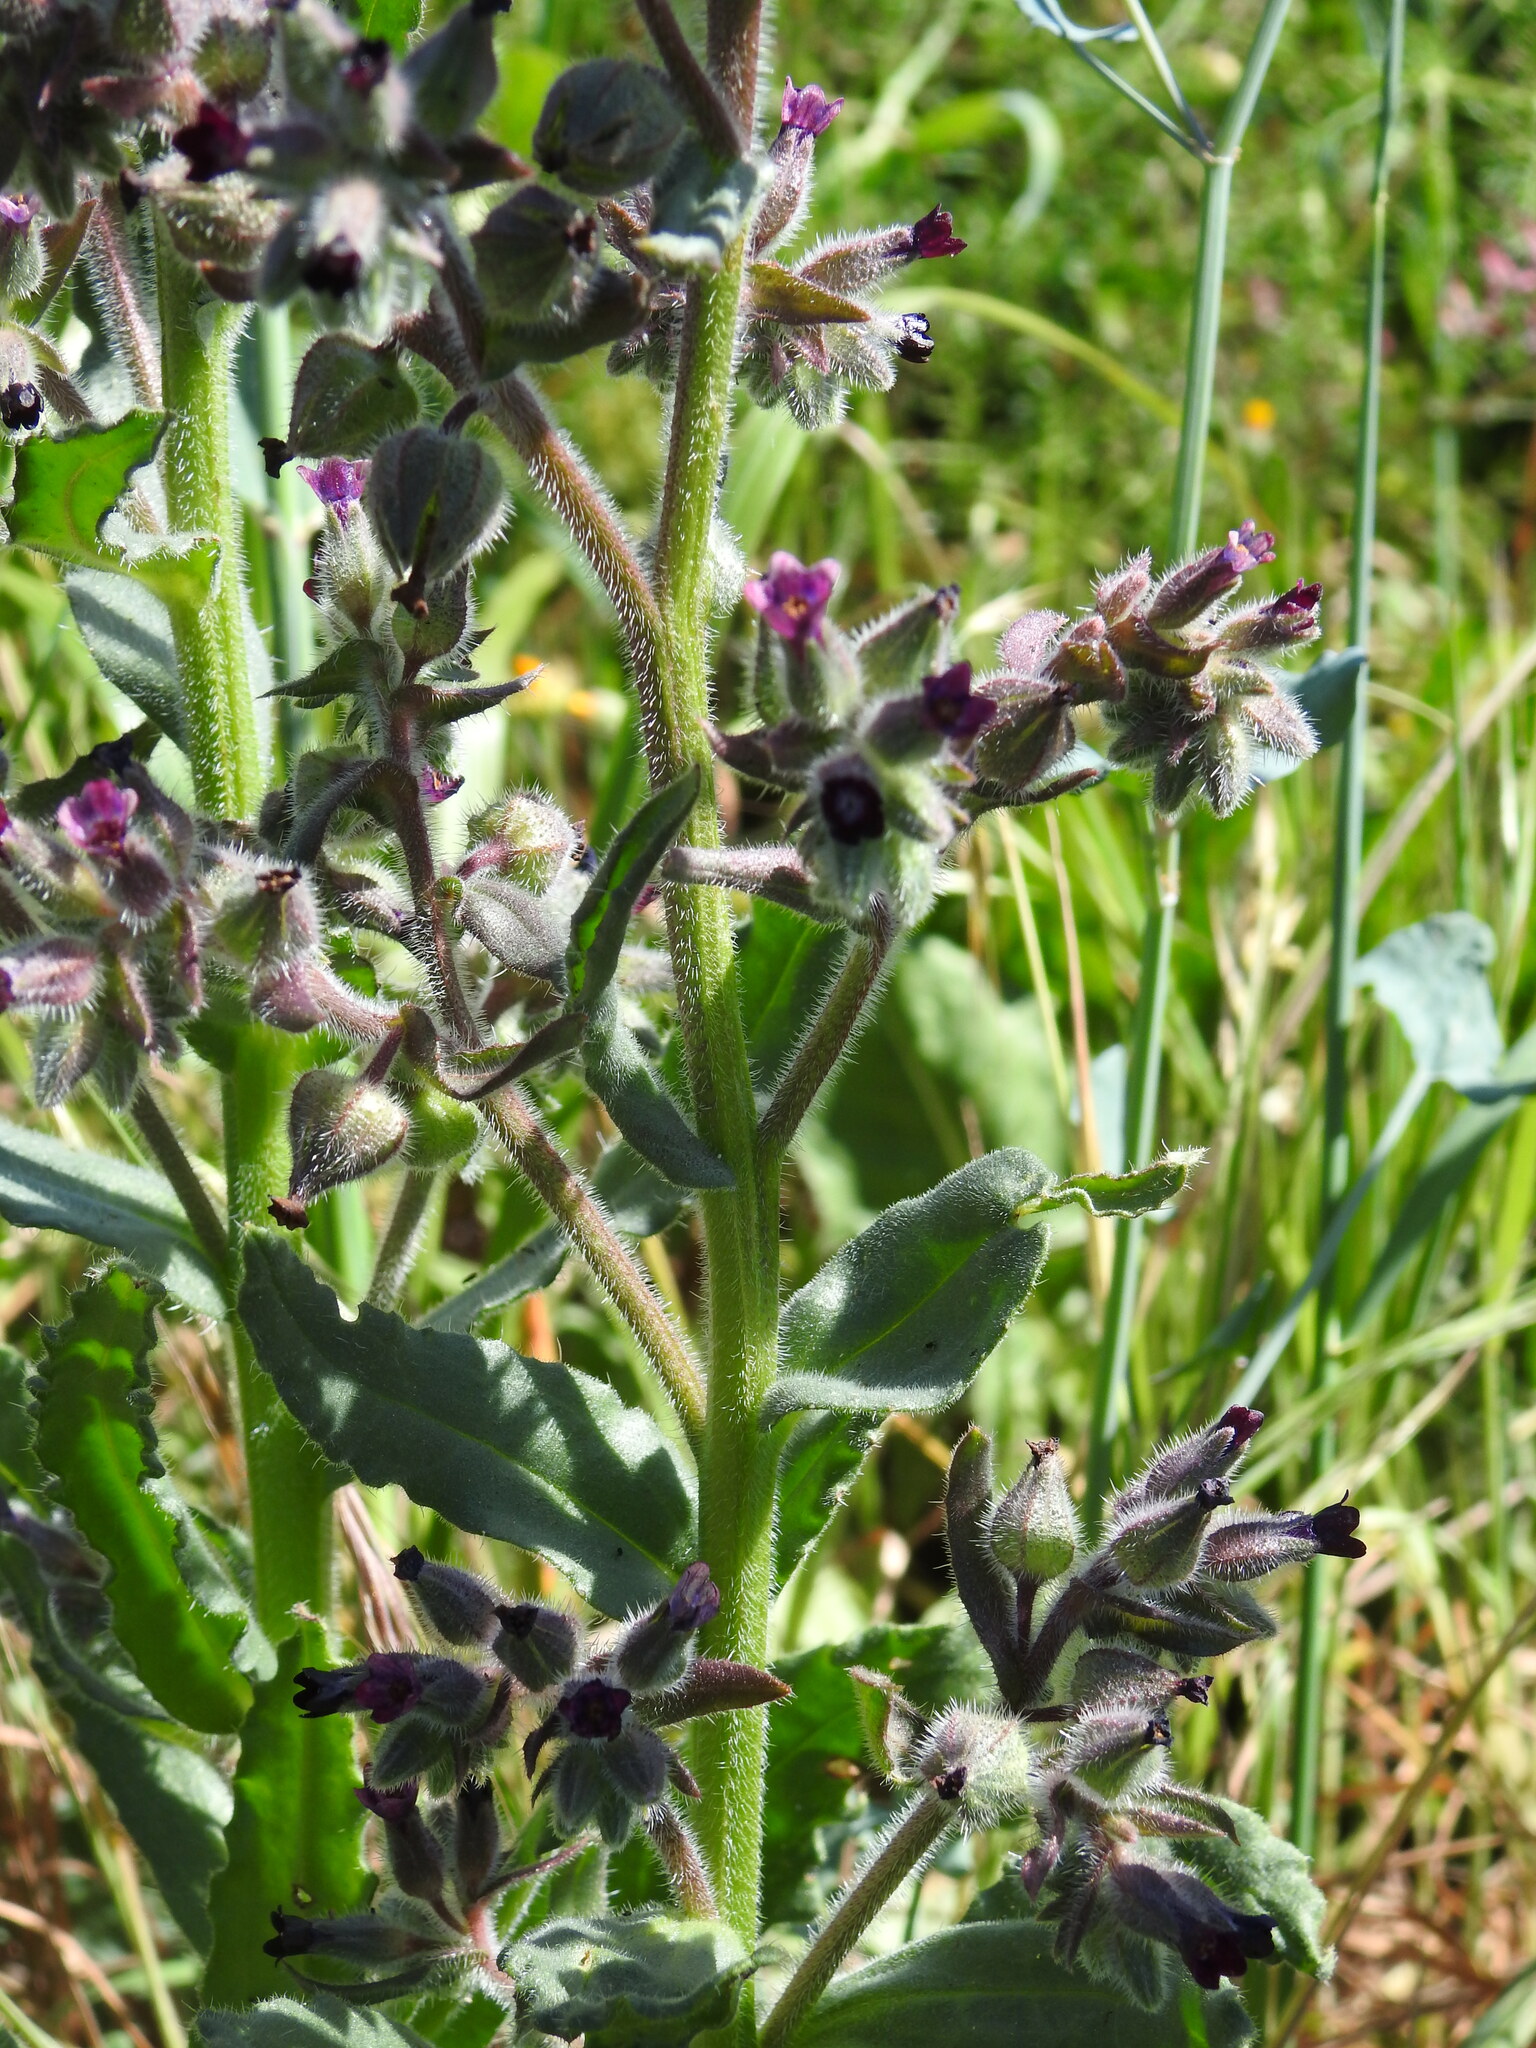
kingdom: Plantae
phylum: Tracheophyta
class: Magnoliopsida
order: Boraginales
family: Boraginaceae
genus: Anchusa
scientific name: Anchusa undulata
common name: Undulate alkanet
